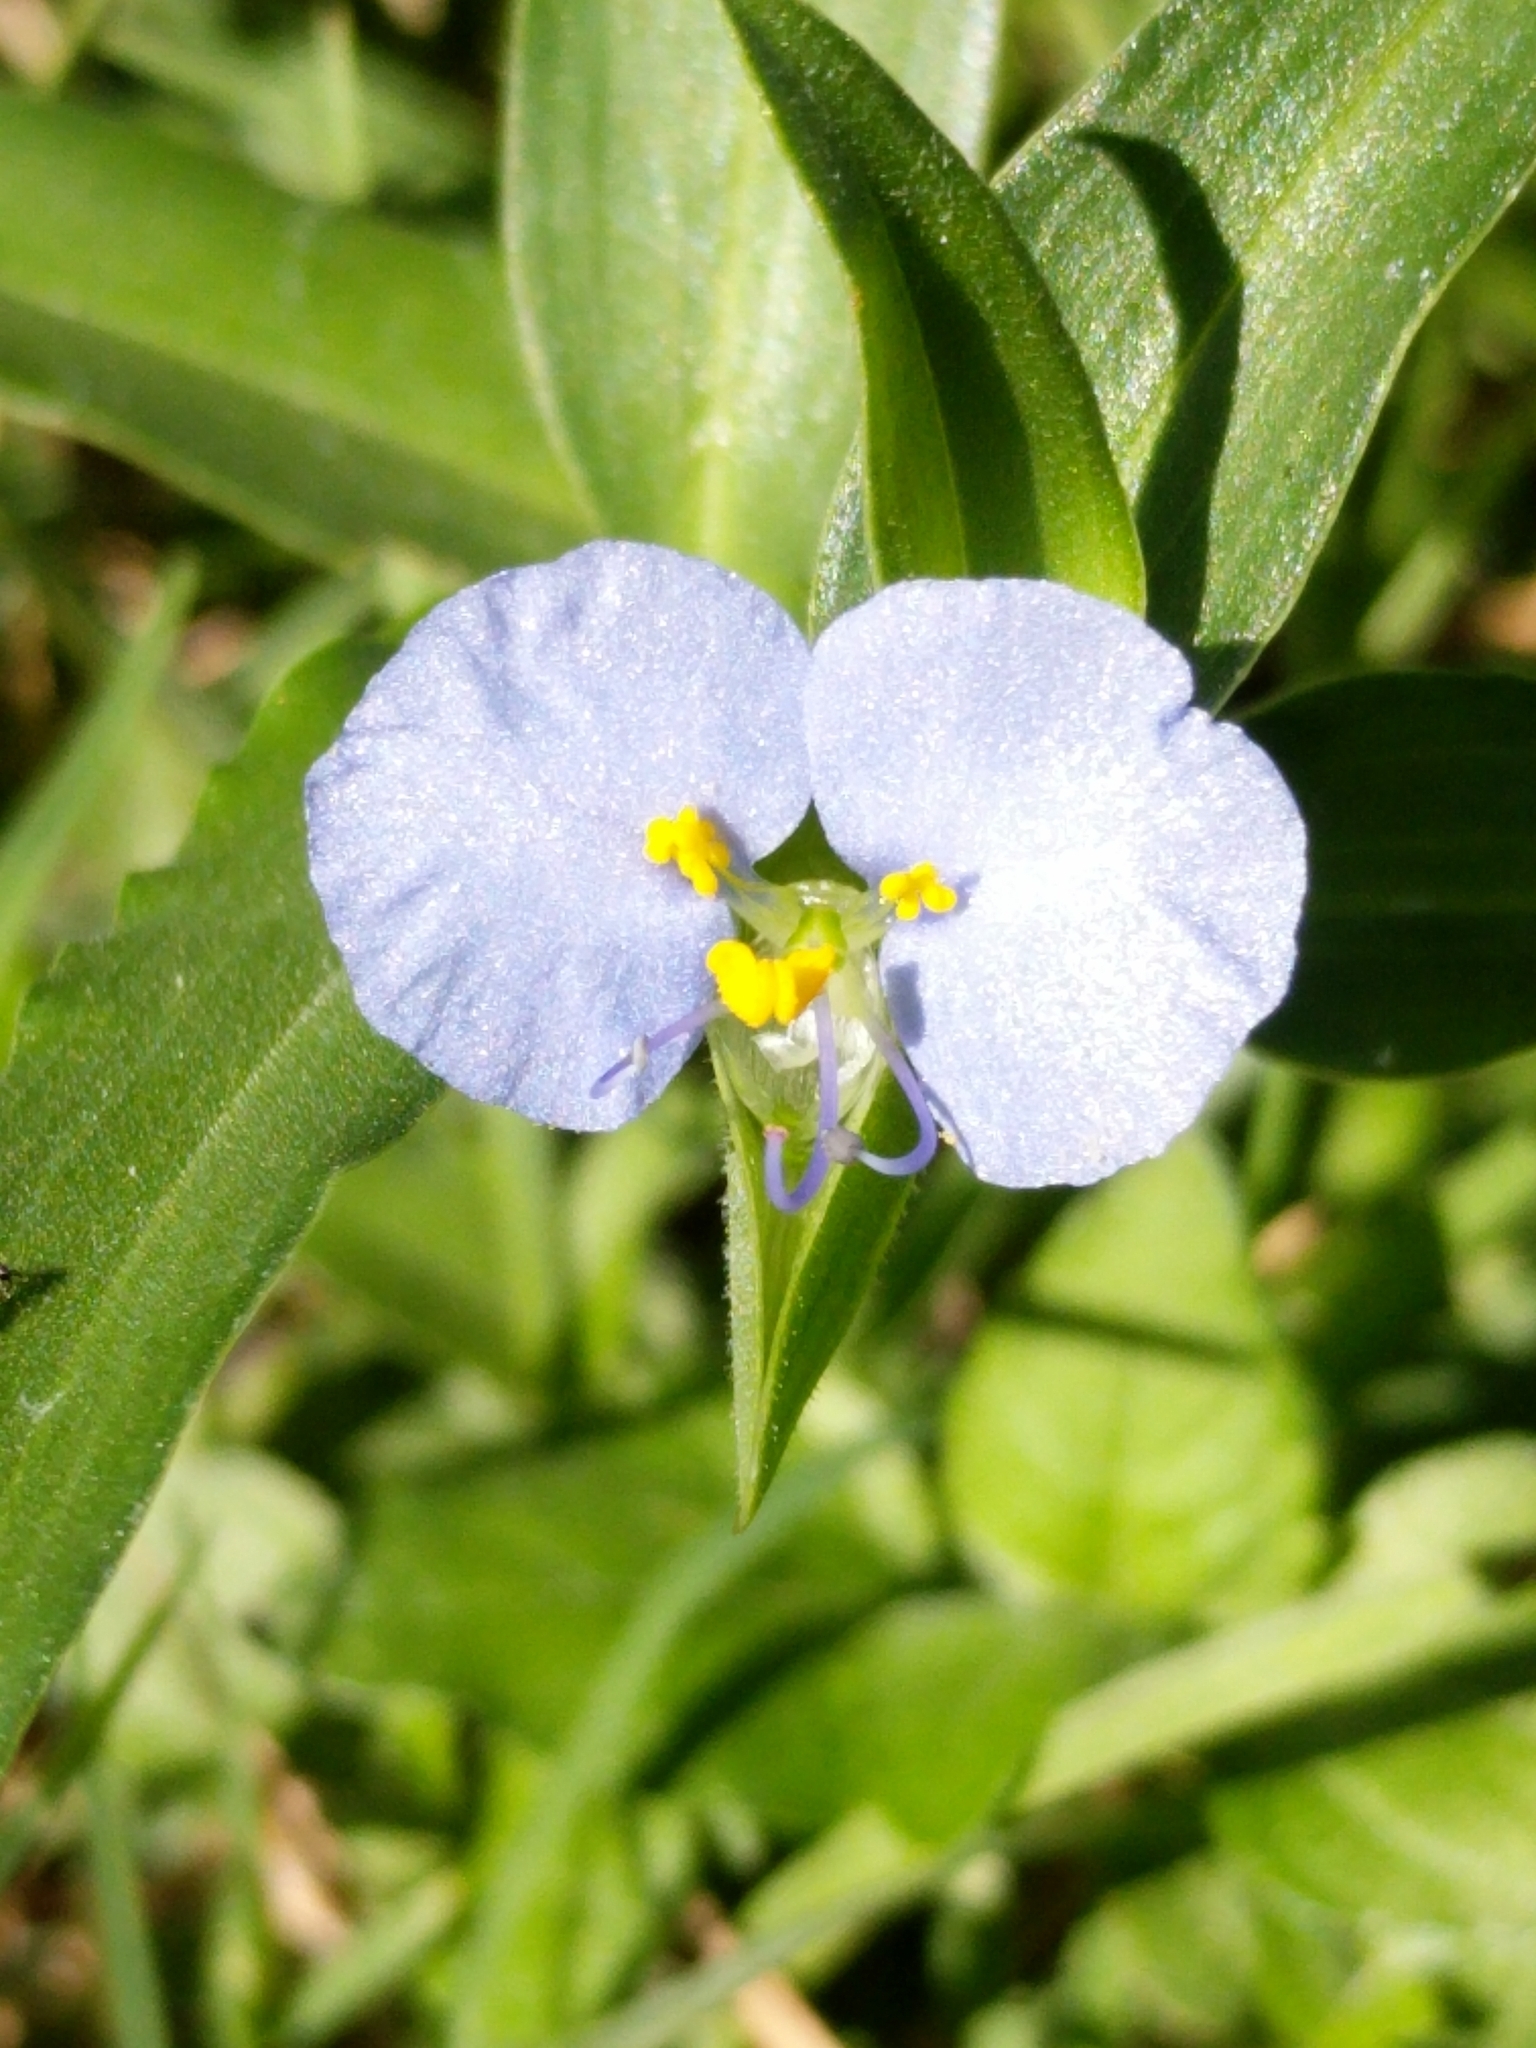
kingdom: Plantae
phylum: Tracheophyta
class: Liliopsida
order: Commelinales
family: Commelinaceae
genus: Commelina
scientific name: Commelina erecta
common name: Blousel blommetjie
